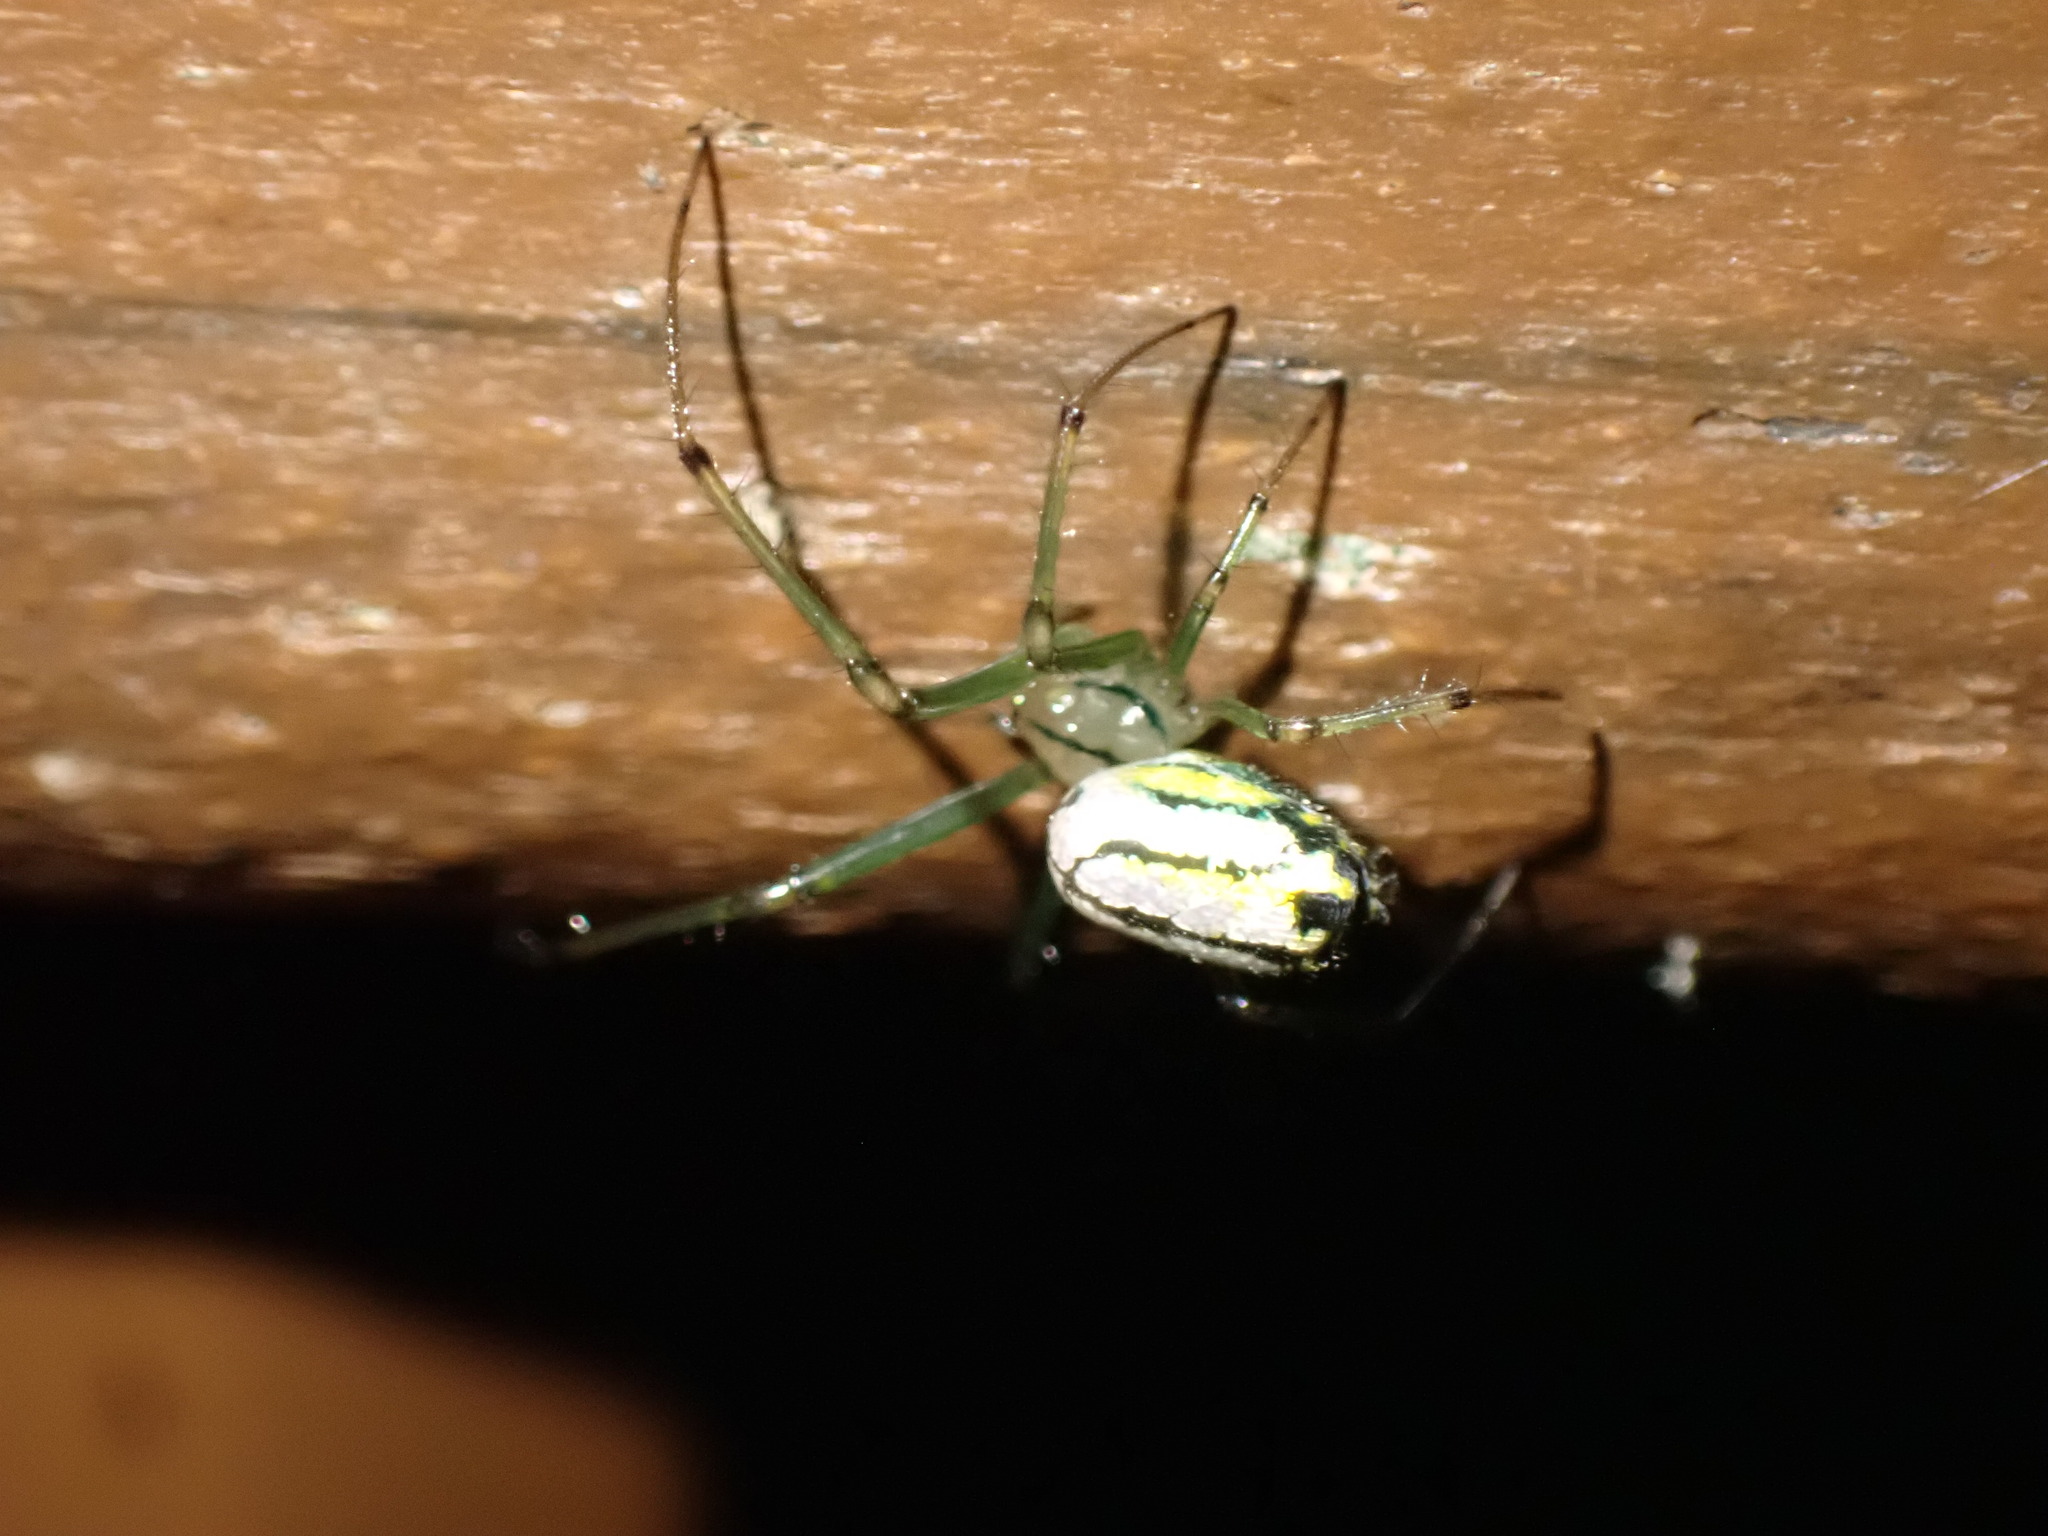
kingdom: Animalia
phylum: Arthropoda
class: Arachnida
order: Araneae
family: Tetragnathidae
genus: Leucauge
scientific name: Leucauge venusta
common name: Longjawed orb weavers
